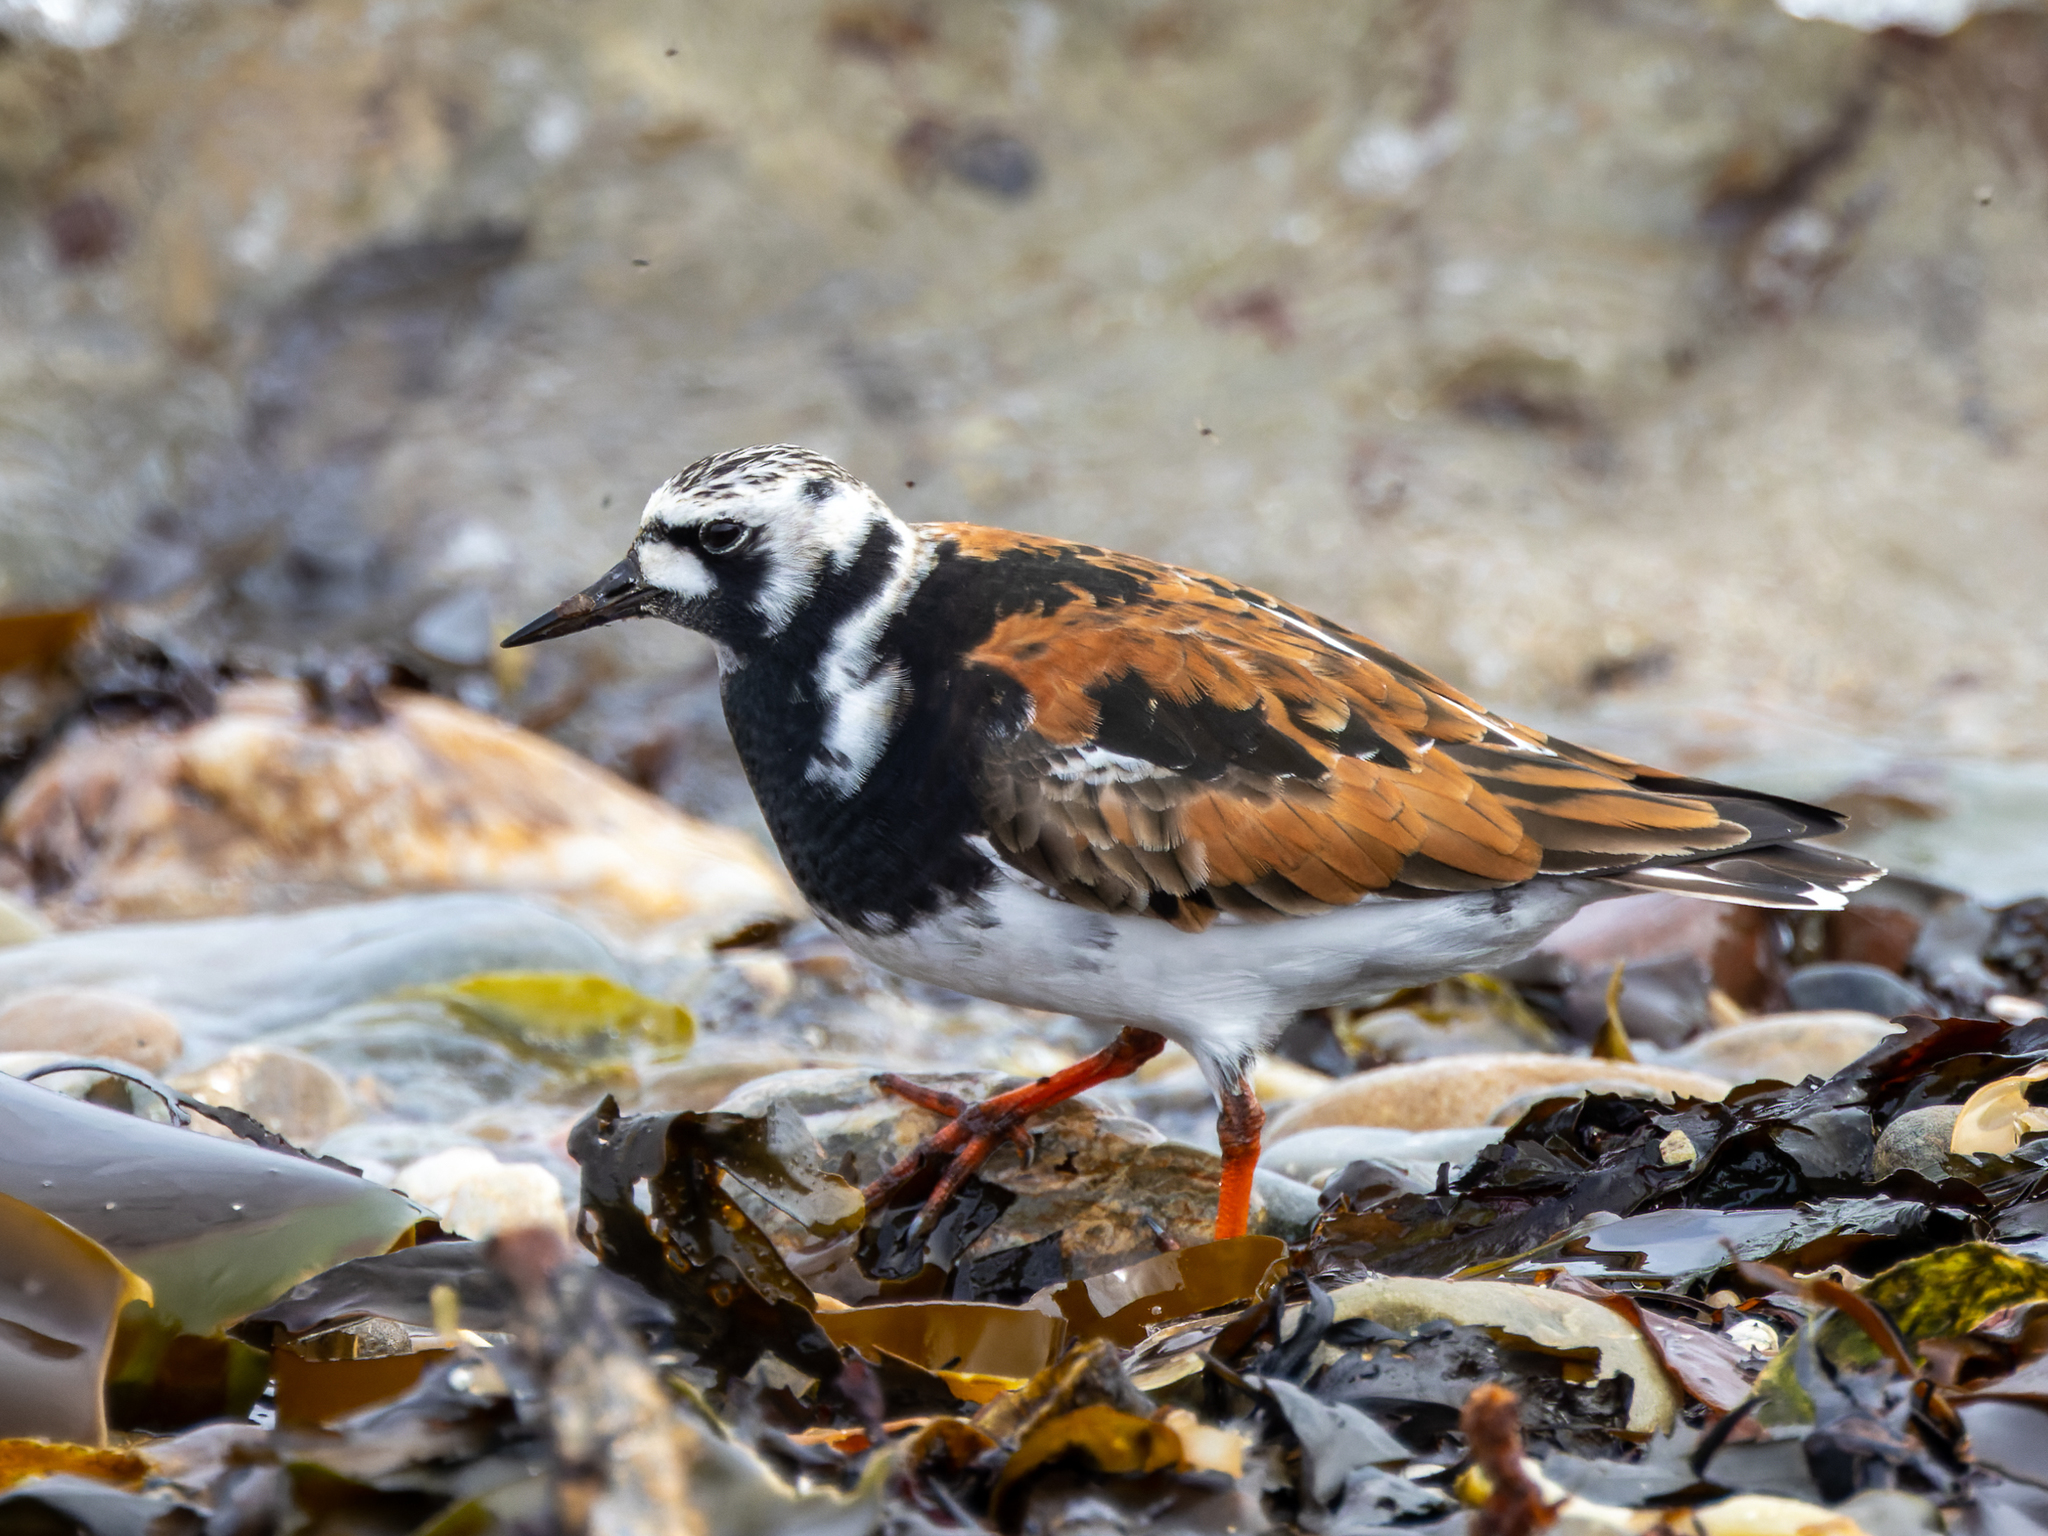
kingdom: Animalia
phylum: Chordata
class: Aves
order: Charadriiformes
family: Scolopacidae
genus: Arenaria
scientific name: Arenaria interpres
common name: Ruddy turnstone
